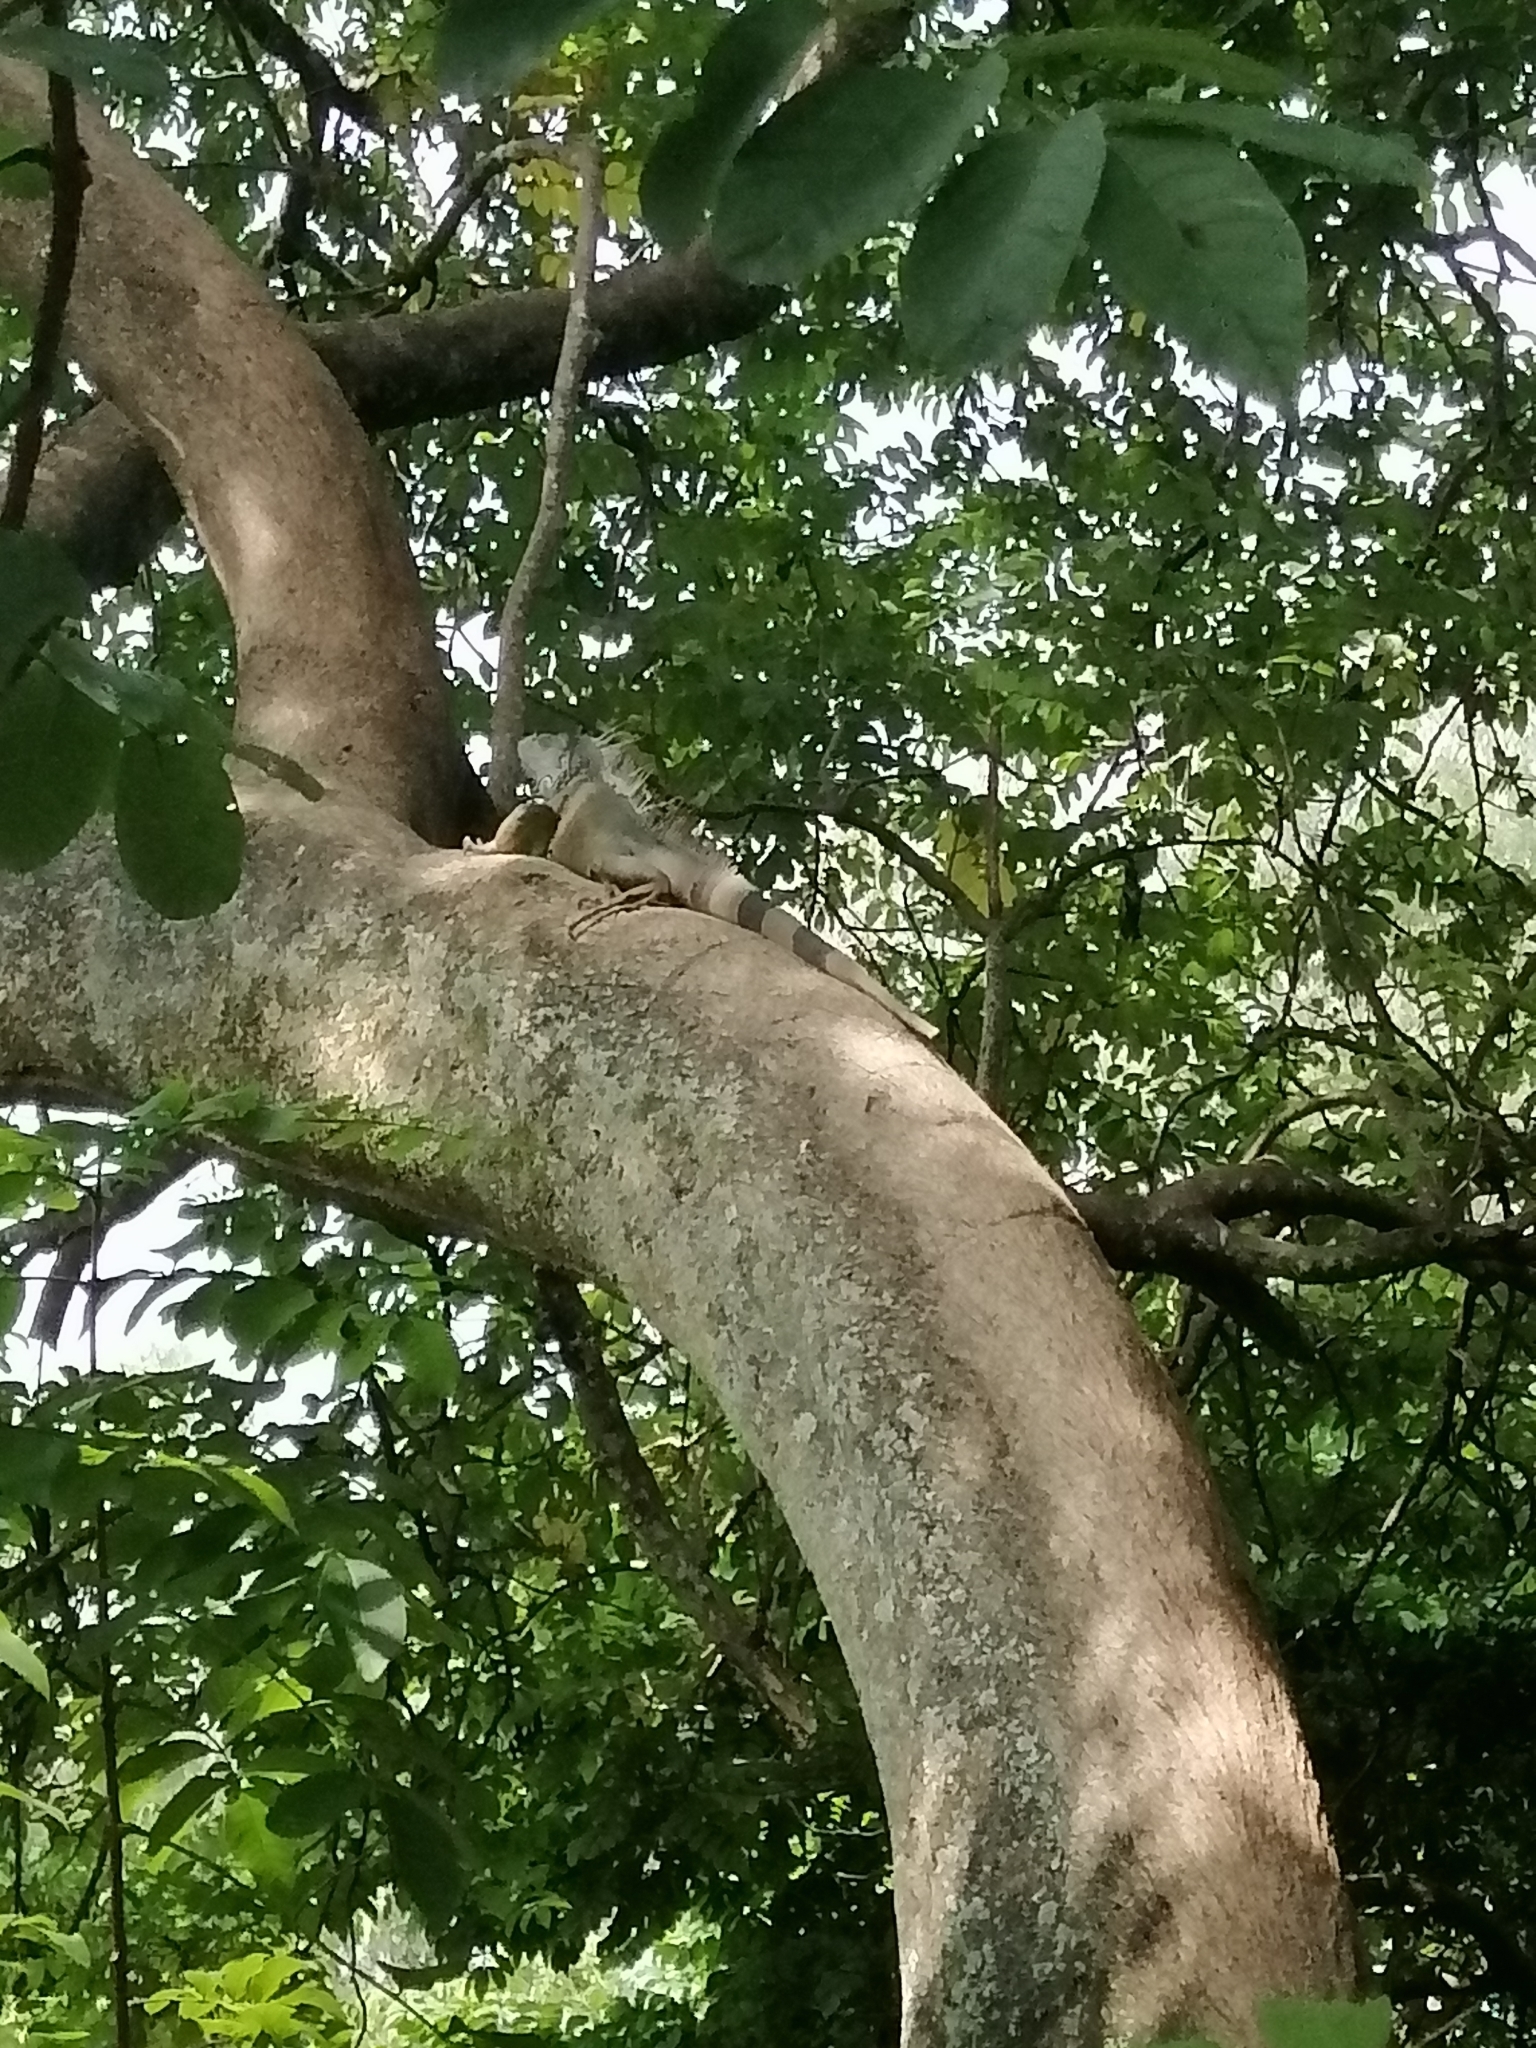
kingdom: Animalia
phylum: Chordata
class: Squamata
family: Iguanidae
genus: Iguana
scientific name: Iguana iguana
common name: Green iguana
